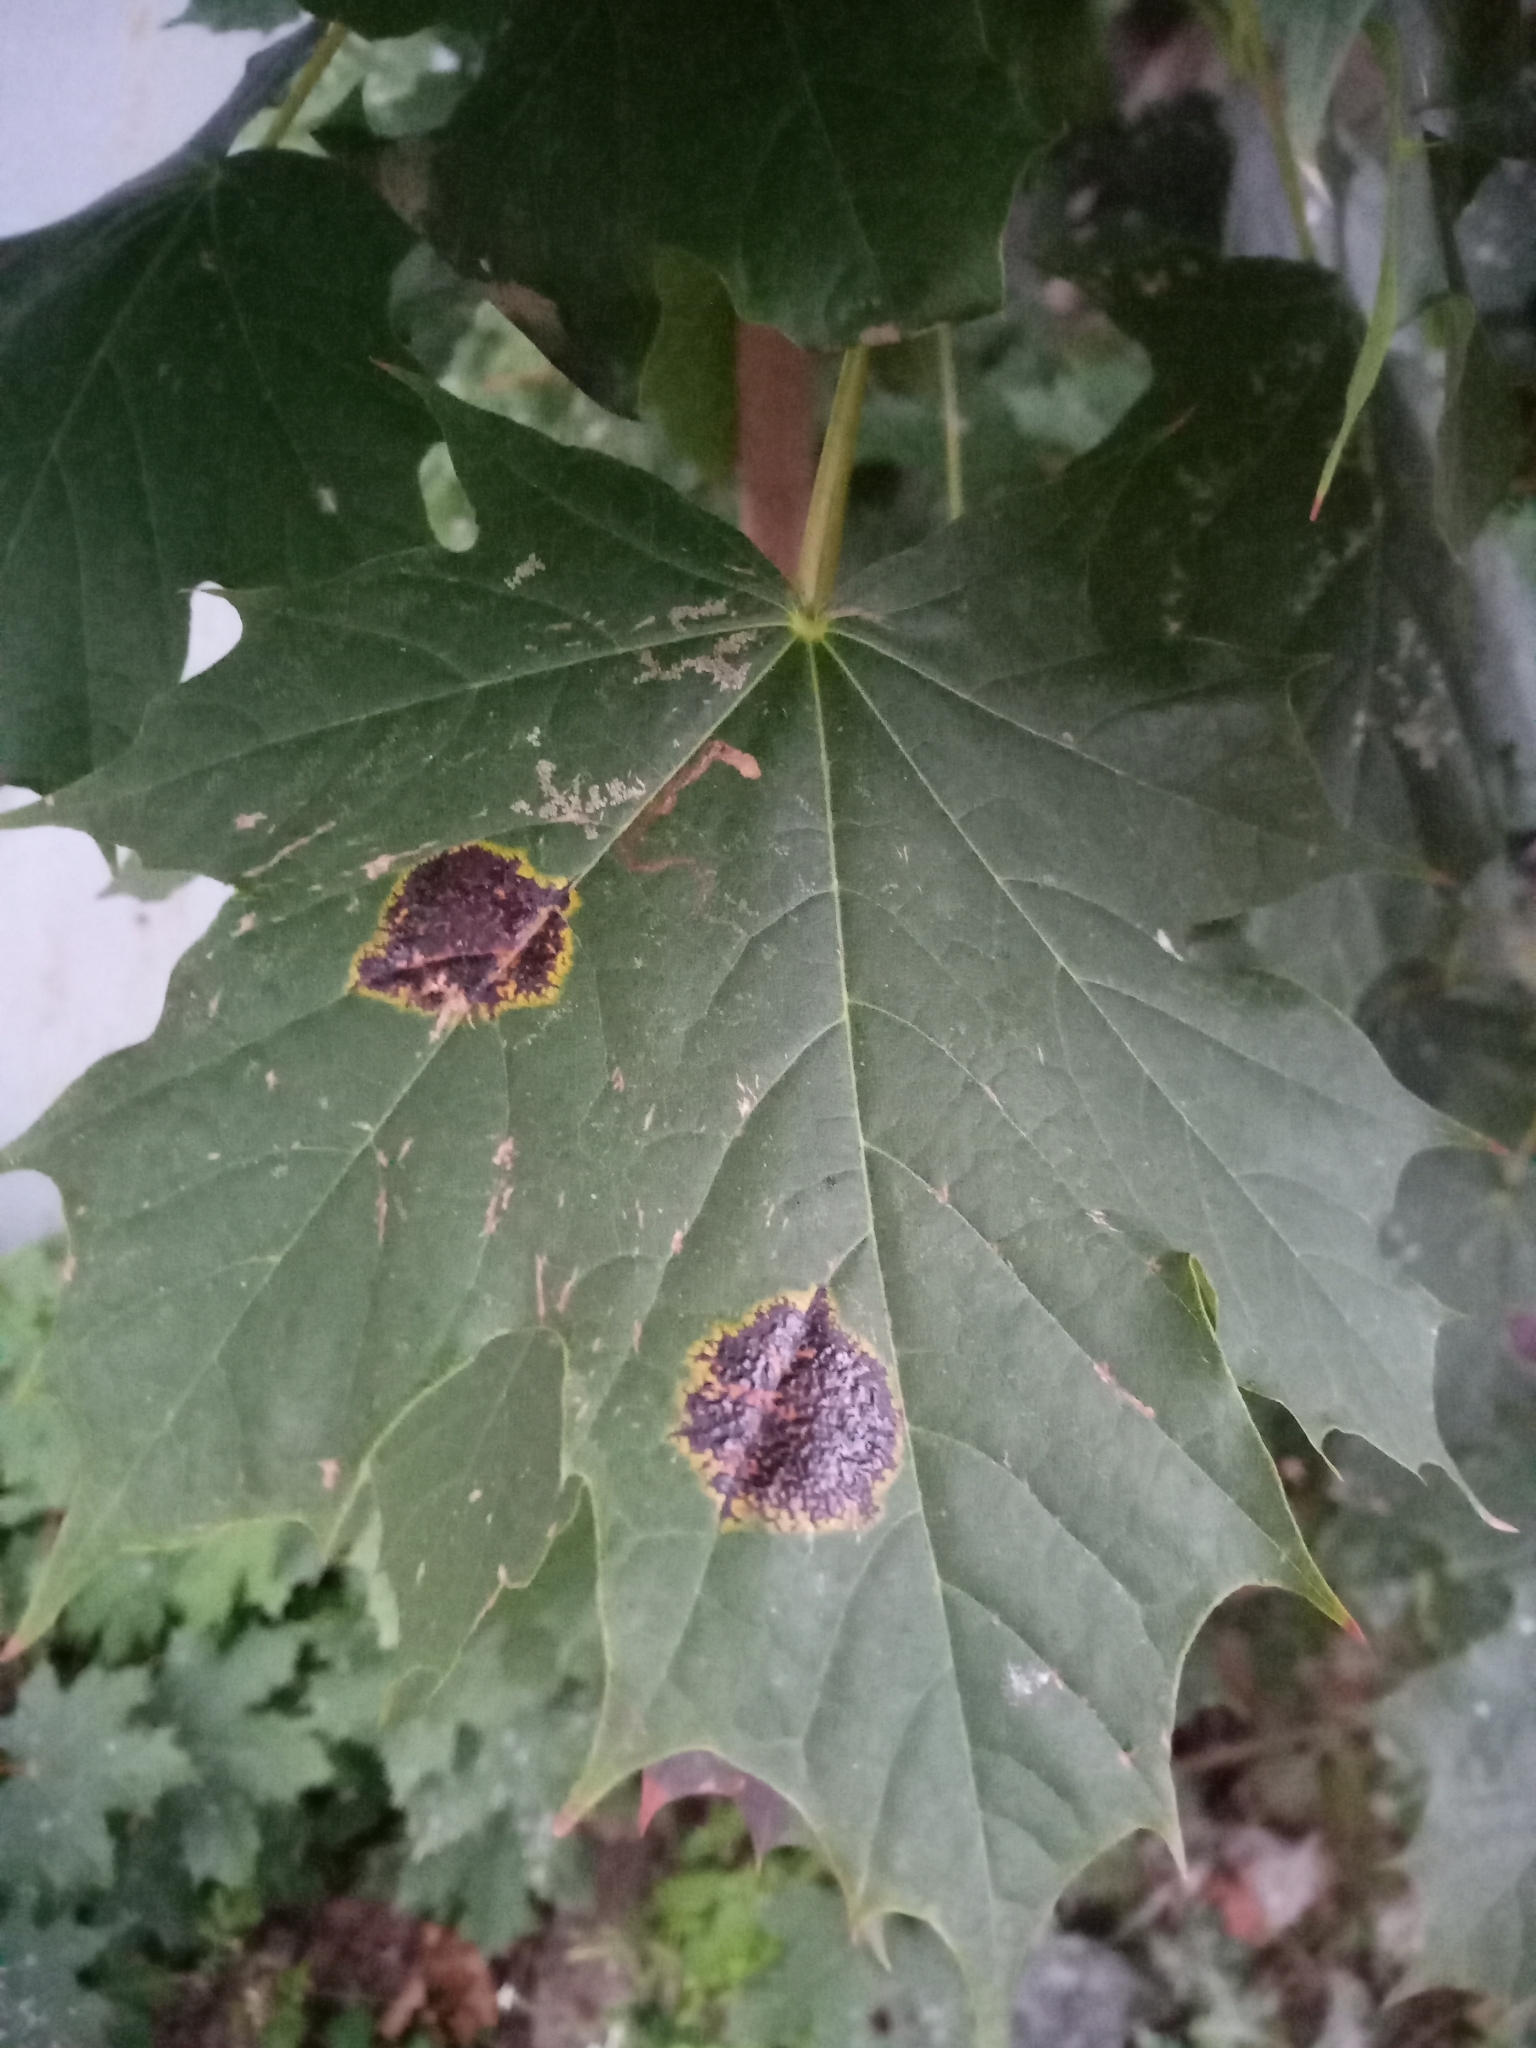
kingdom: Fungi
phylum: Ascomycota
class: Leotiomycetes
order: Rhytismatales
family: Rhytismataceae
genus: Rhytisma
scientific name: Rhytisma acerinum
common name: European tar spot
